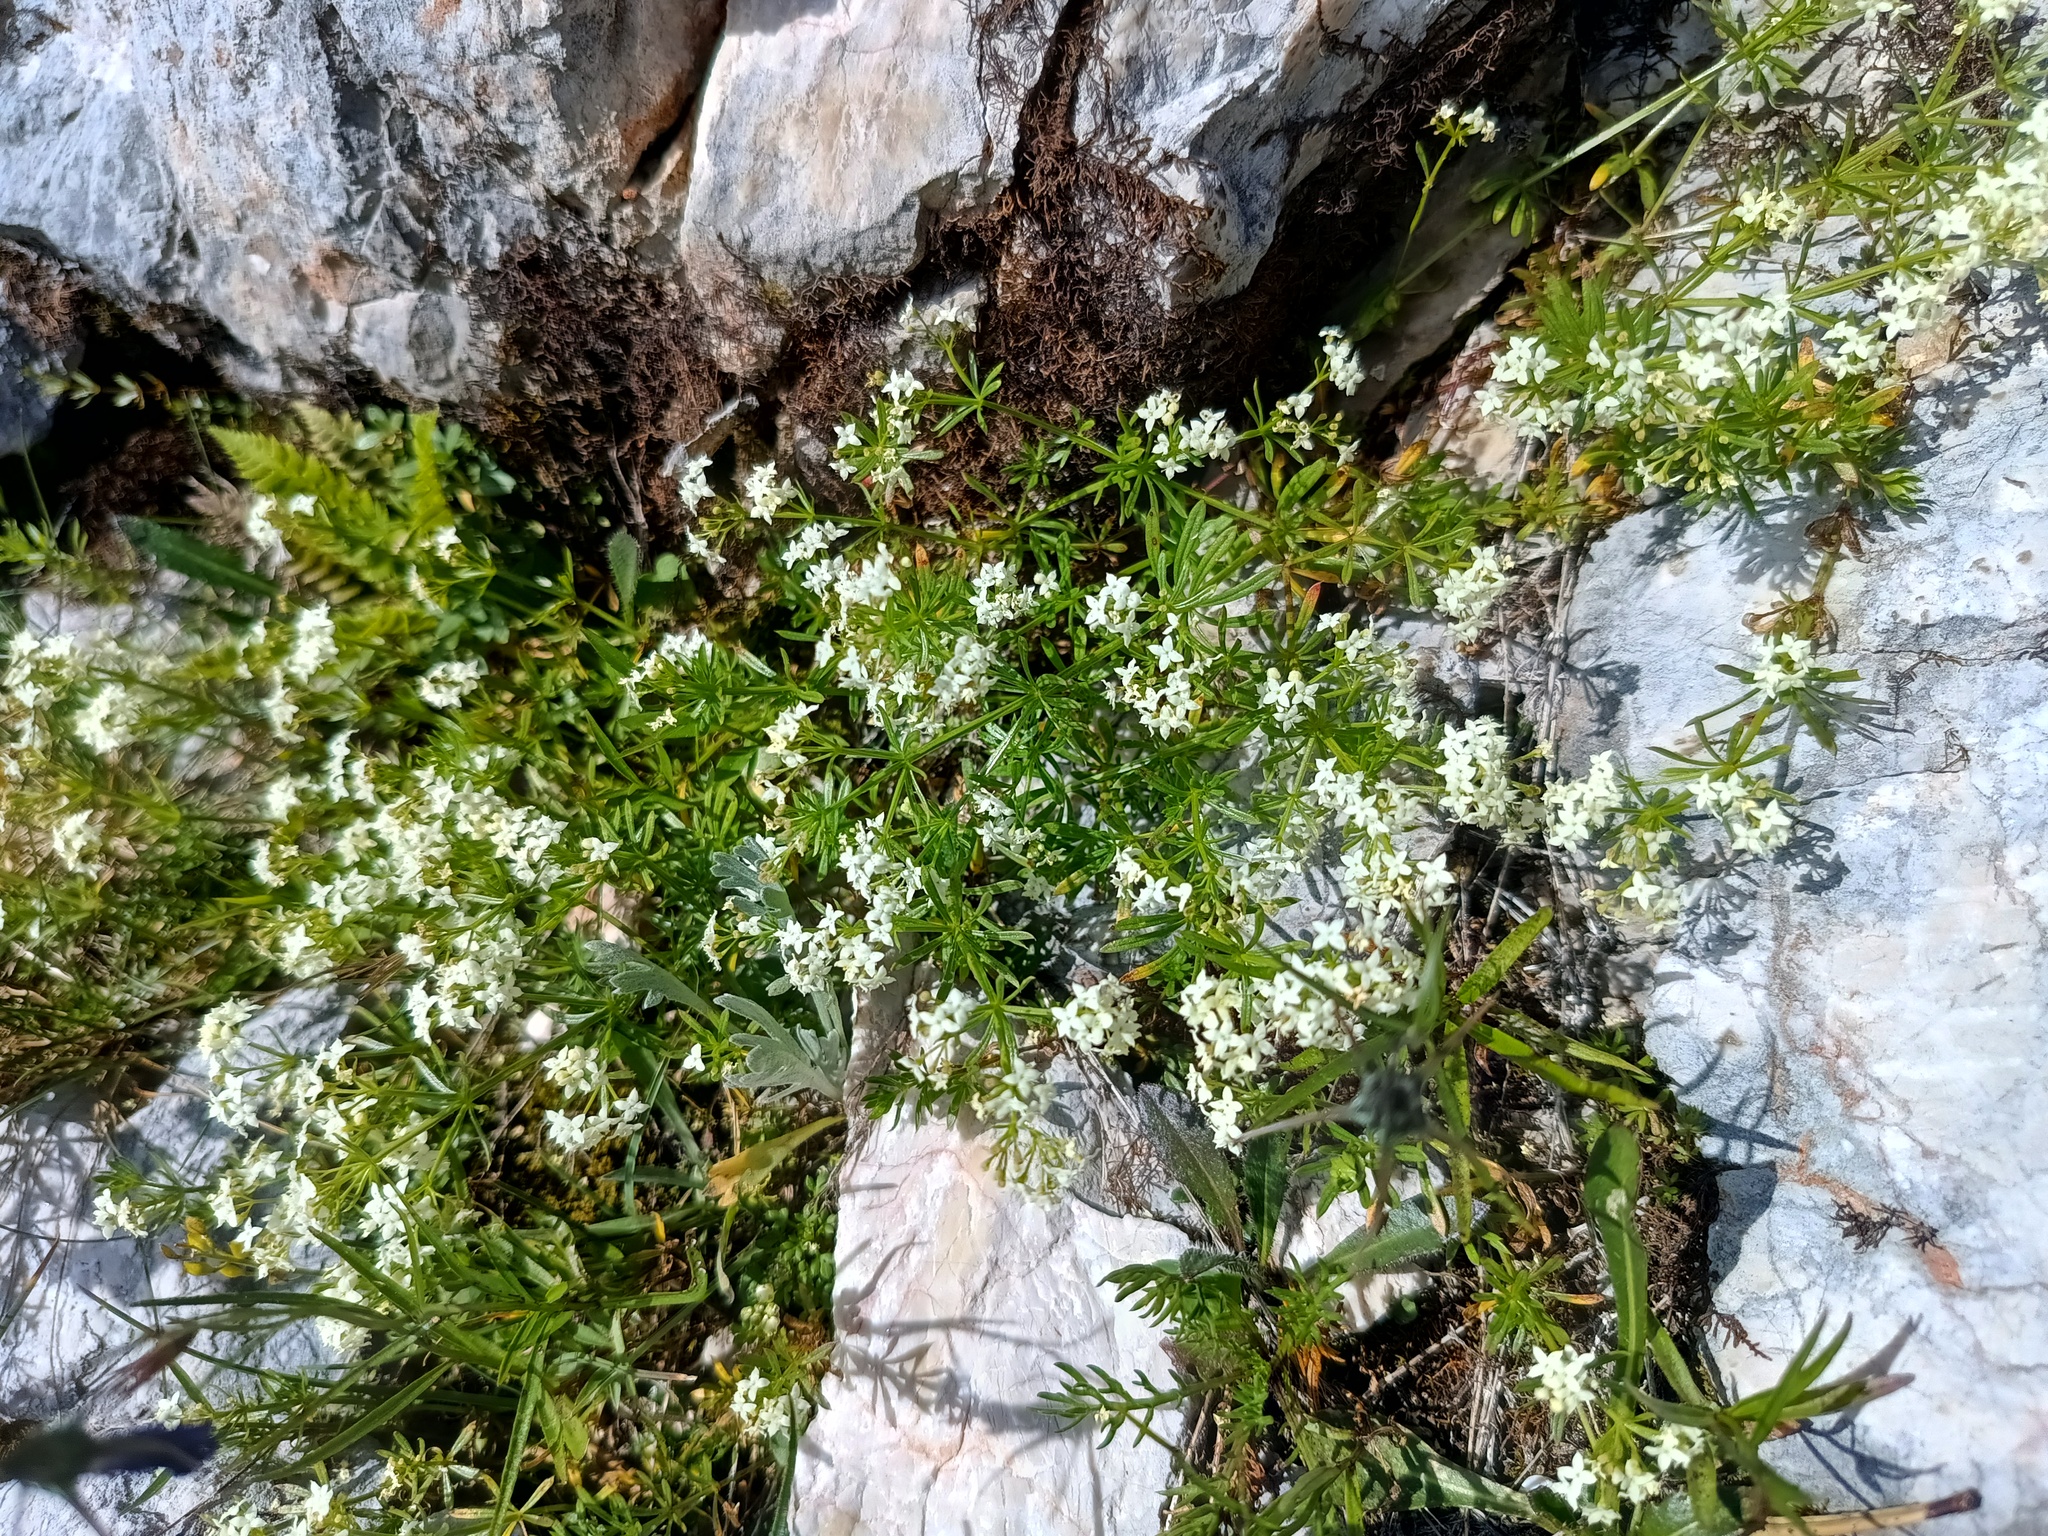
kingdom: Plantae
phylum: Tracheophyta
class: Magnoliopsida
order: Gentianales
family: Rubiaceae
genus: Galium
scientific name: Galium anisophyllon
